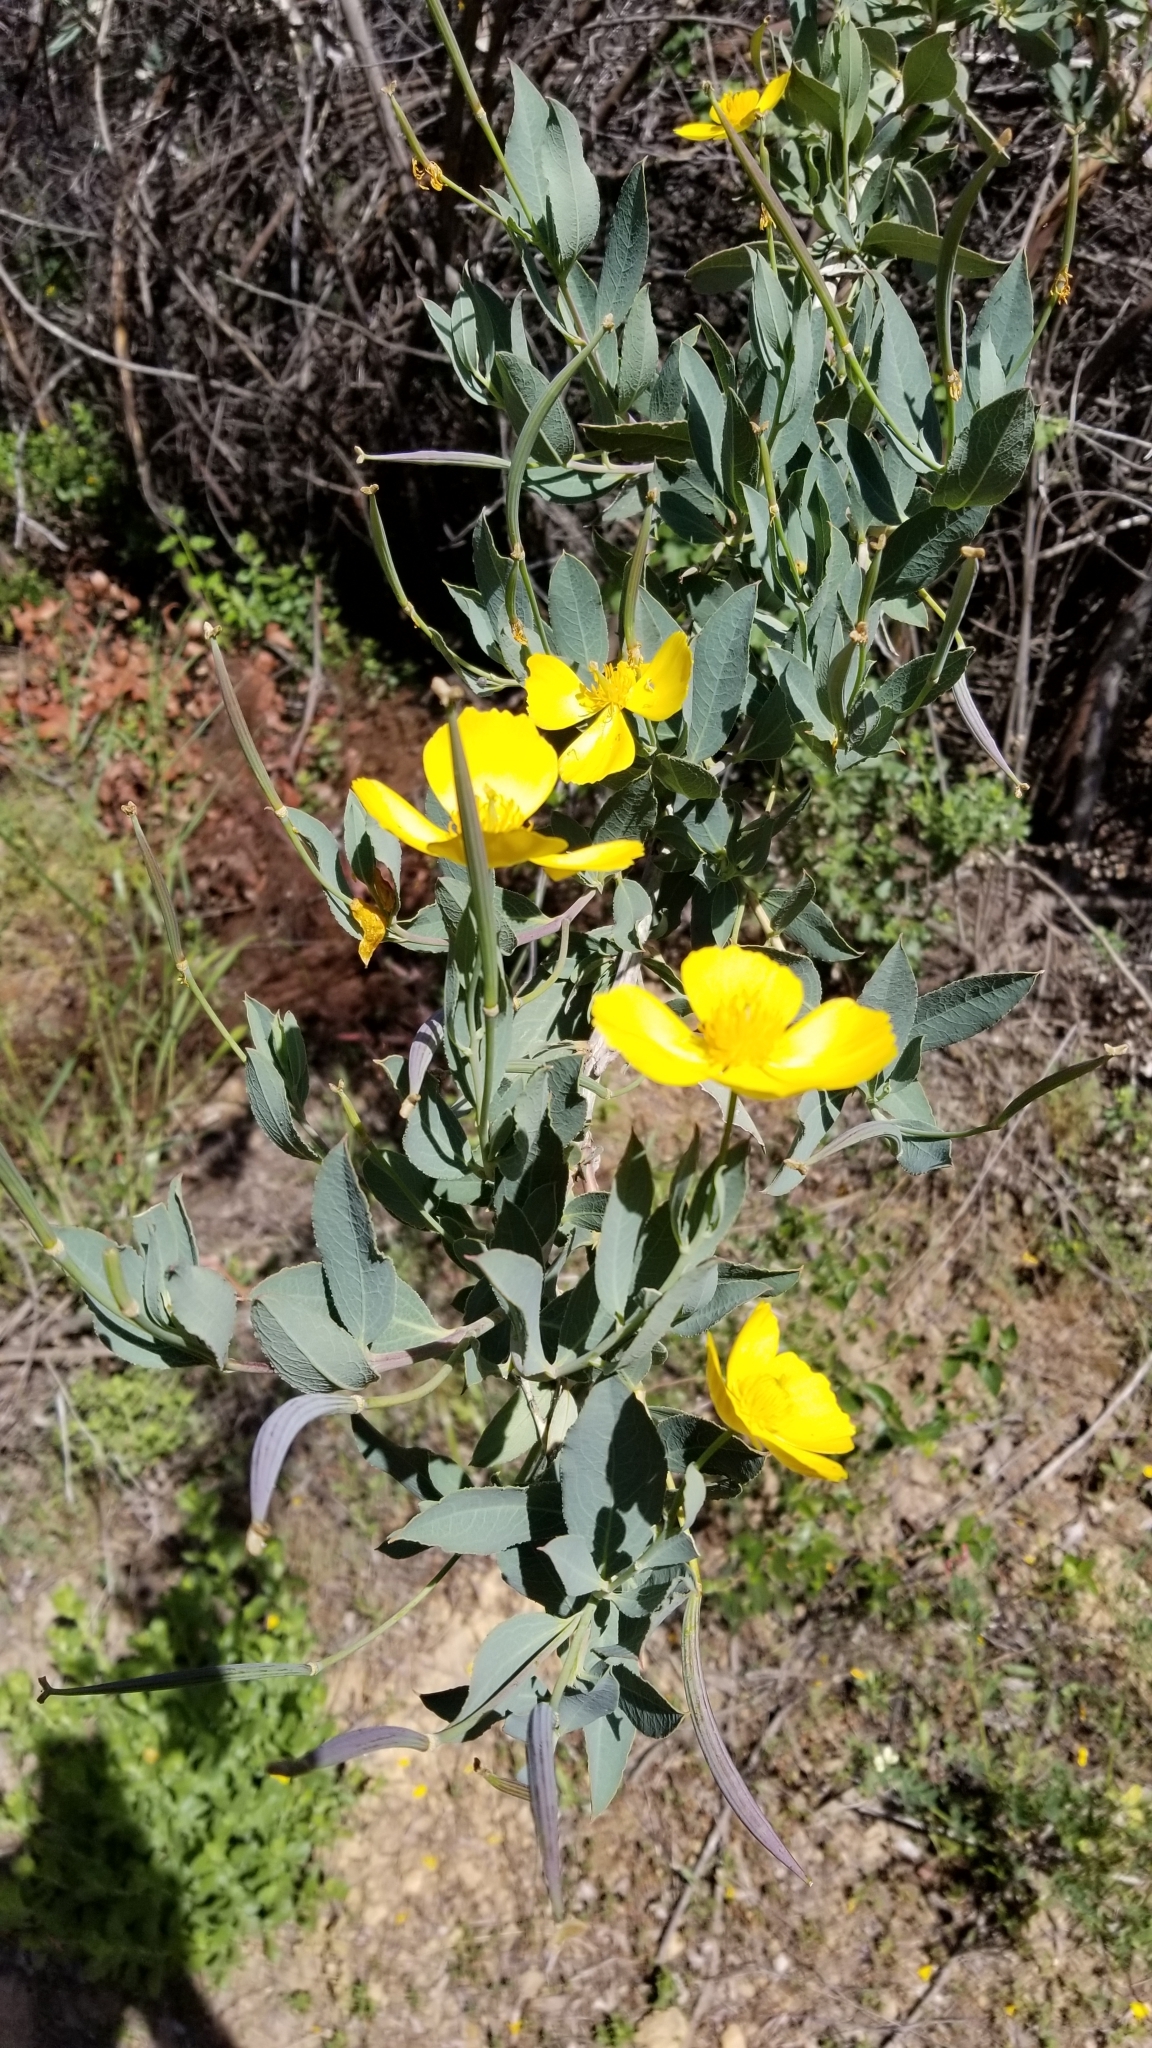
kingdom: Plantae
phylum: Tracheophyta
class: Magnoliopsida
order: Ranunculales
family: Papaveraceae
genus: Dendromecon
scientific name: Dendromecon rigida
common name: Tree poppy
